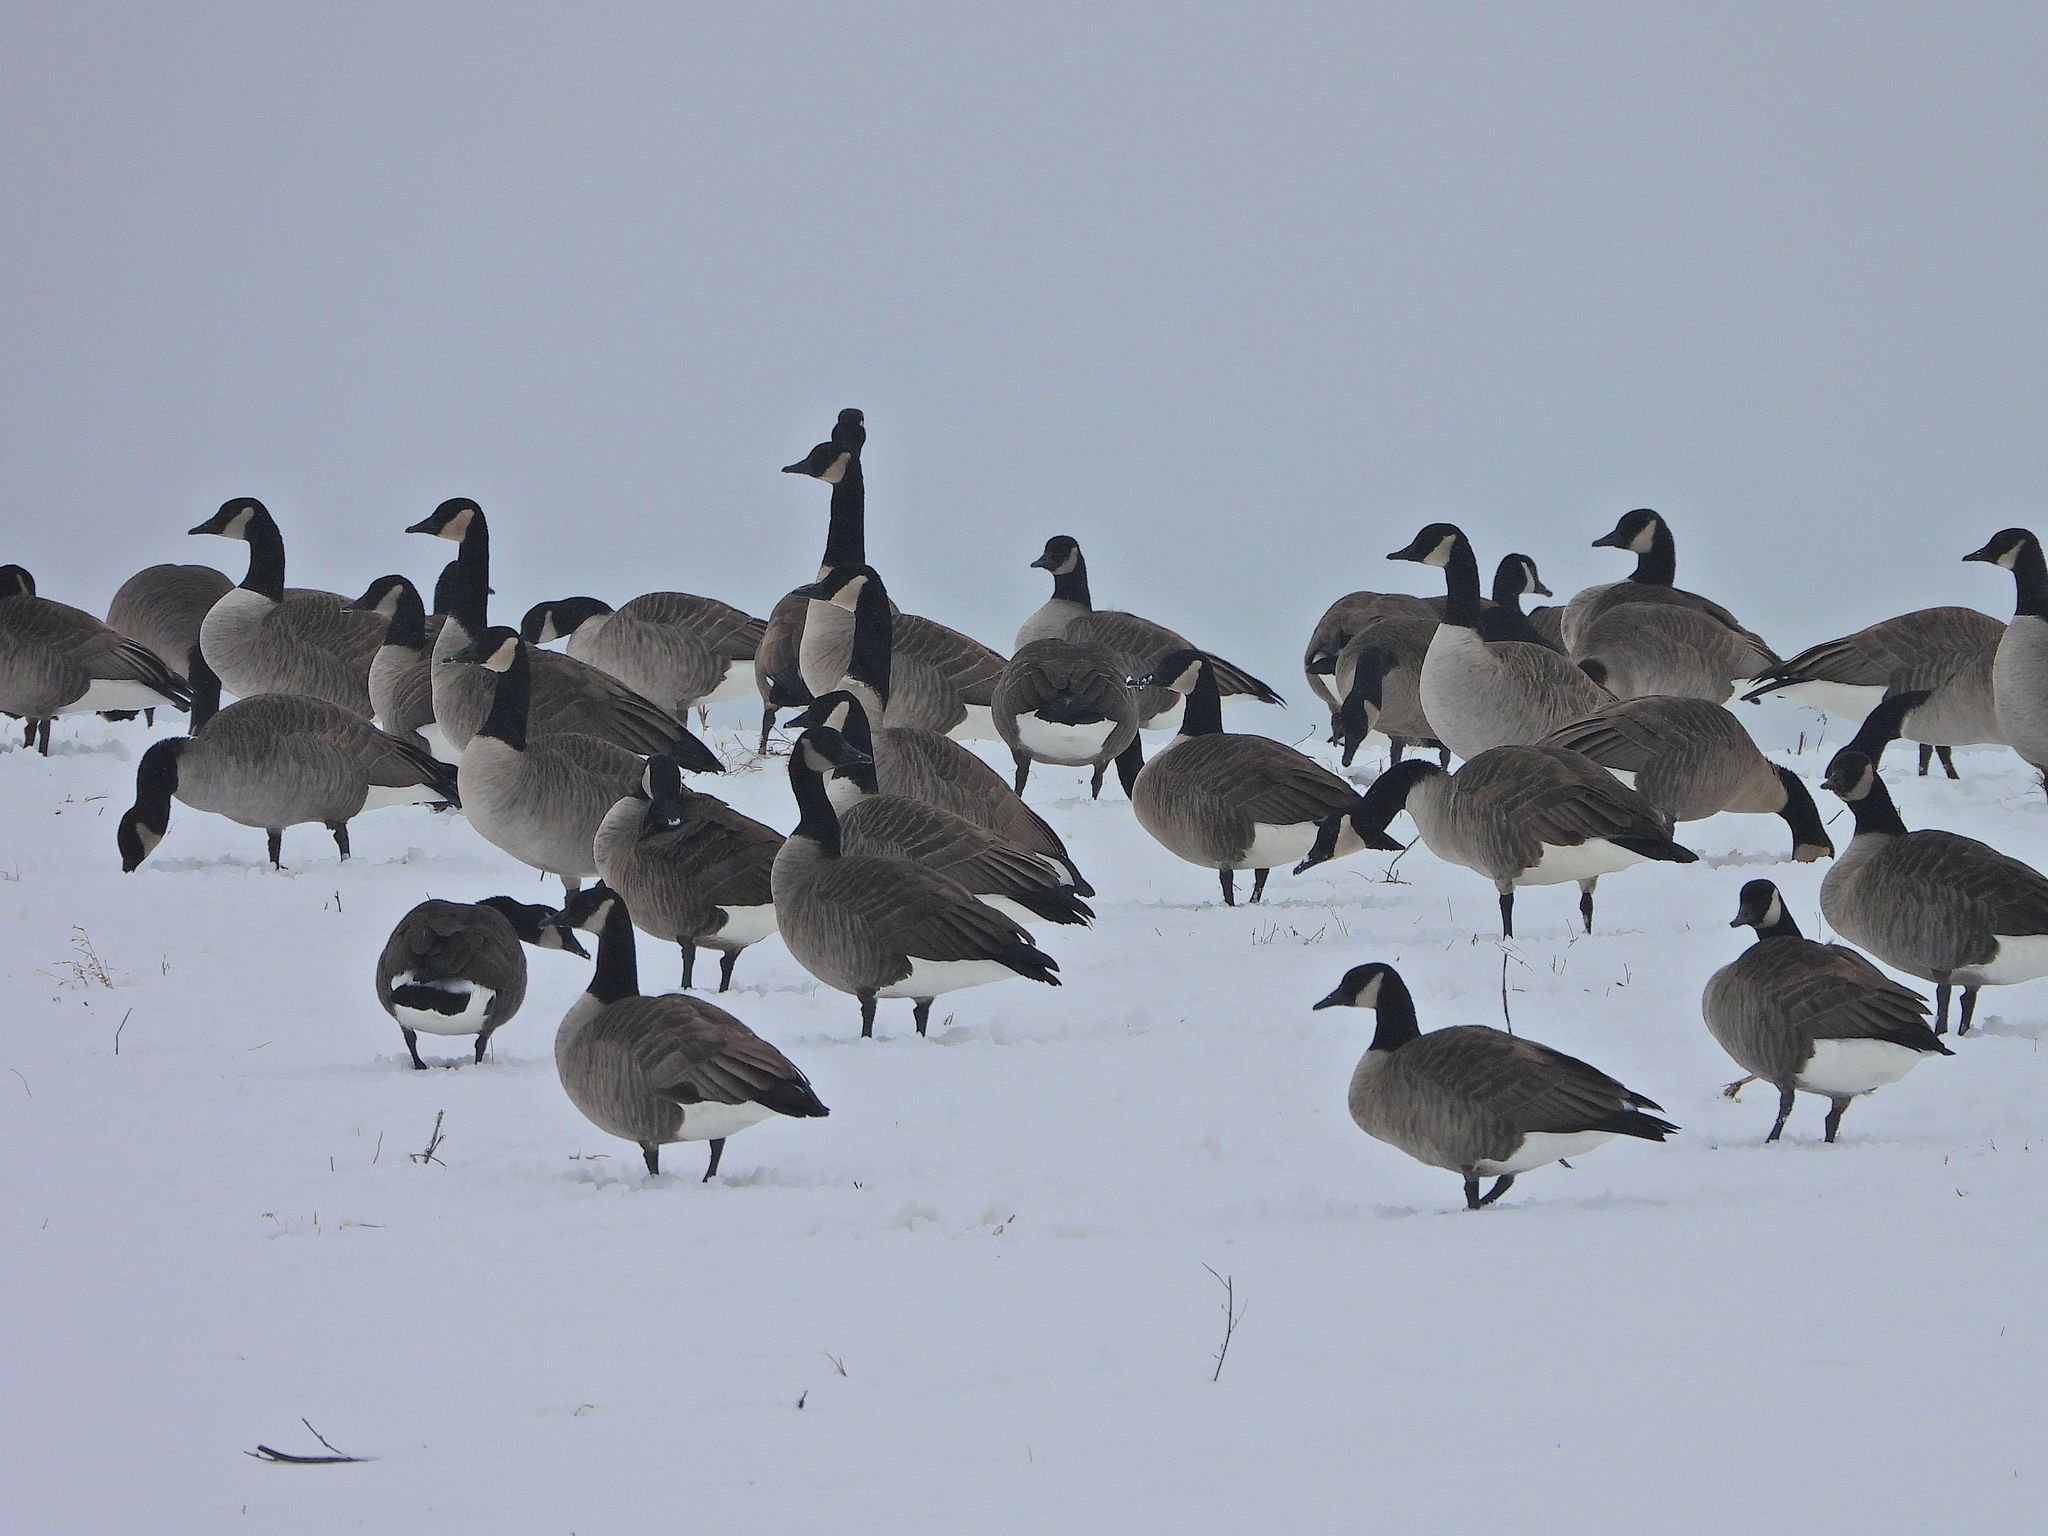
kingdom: Animalia
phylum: Chordata
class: Aves
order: Anseriformes
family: Anatidae
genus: Branta
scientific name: Branta canadensis
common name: Canada goose
